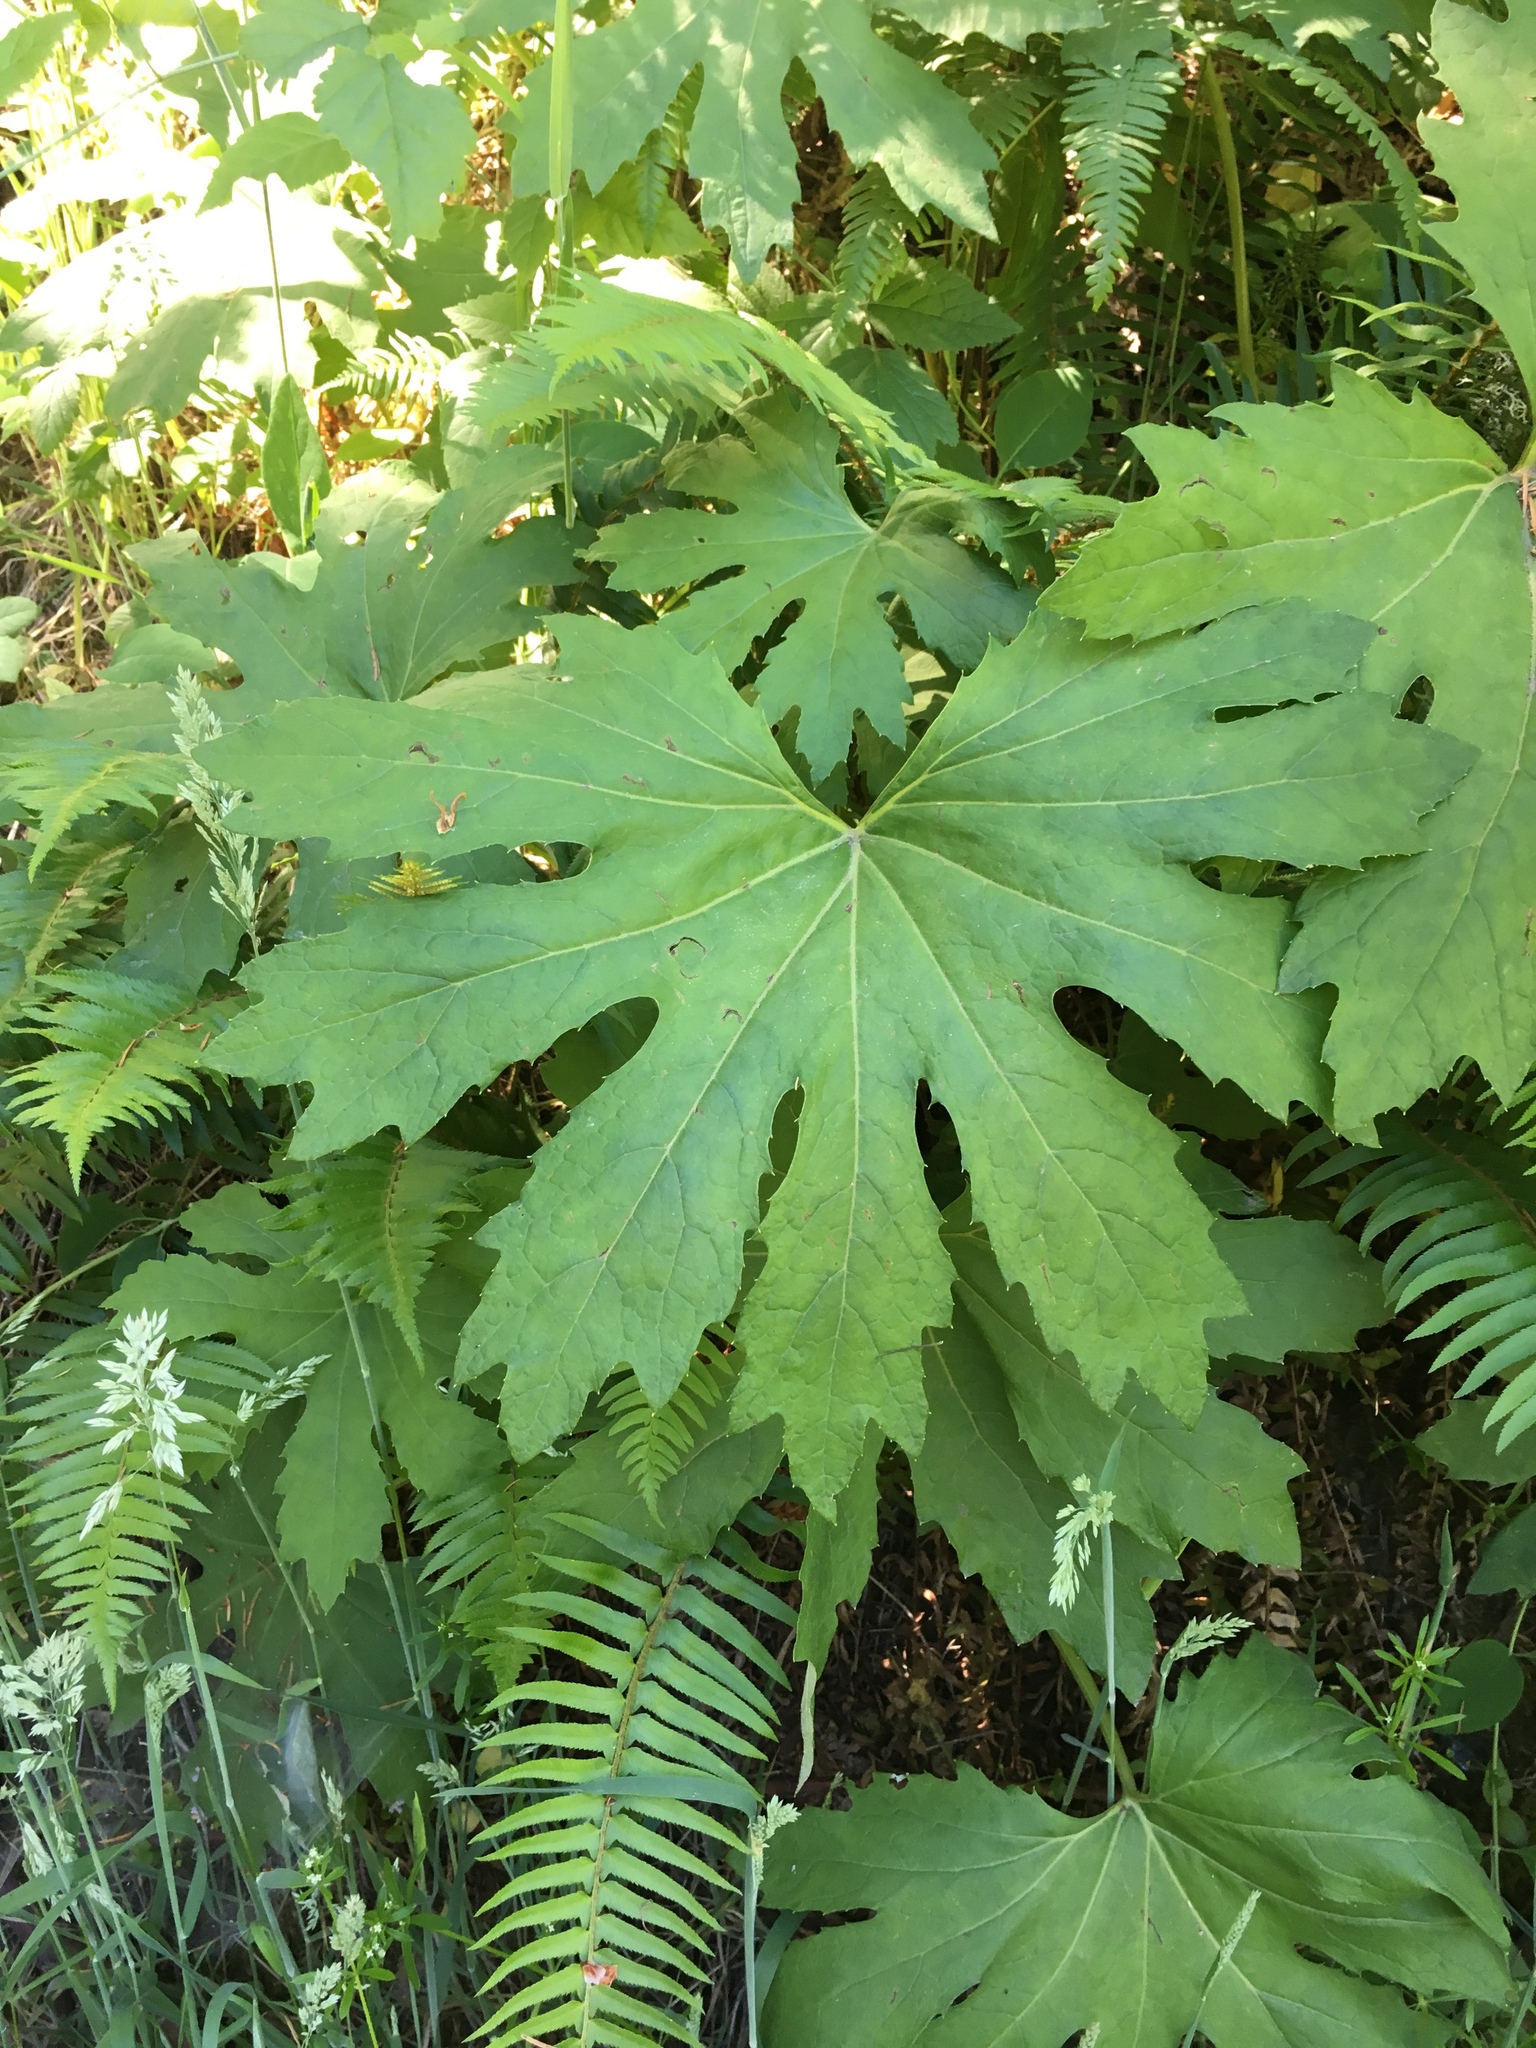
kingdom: Plantae
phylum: Tracheophyta
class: Magnoliopsida
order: Asterales
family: Asteraceae
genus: Petasites
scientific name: Petasites frigidus
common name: Arctic butterbur
